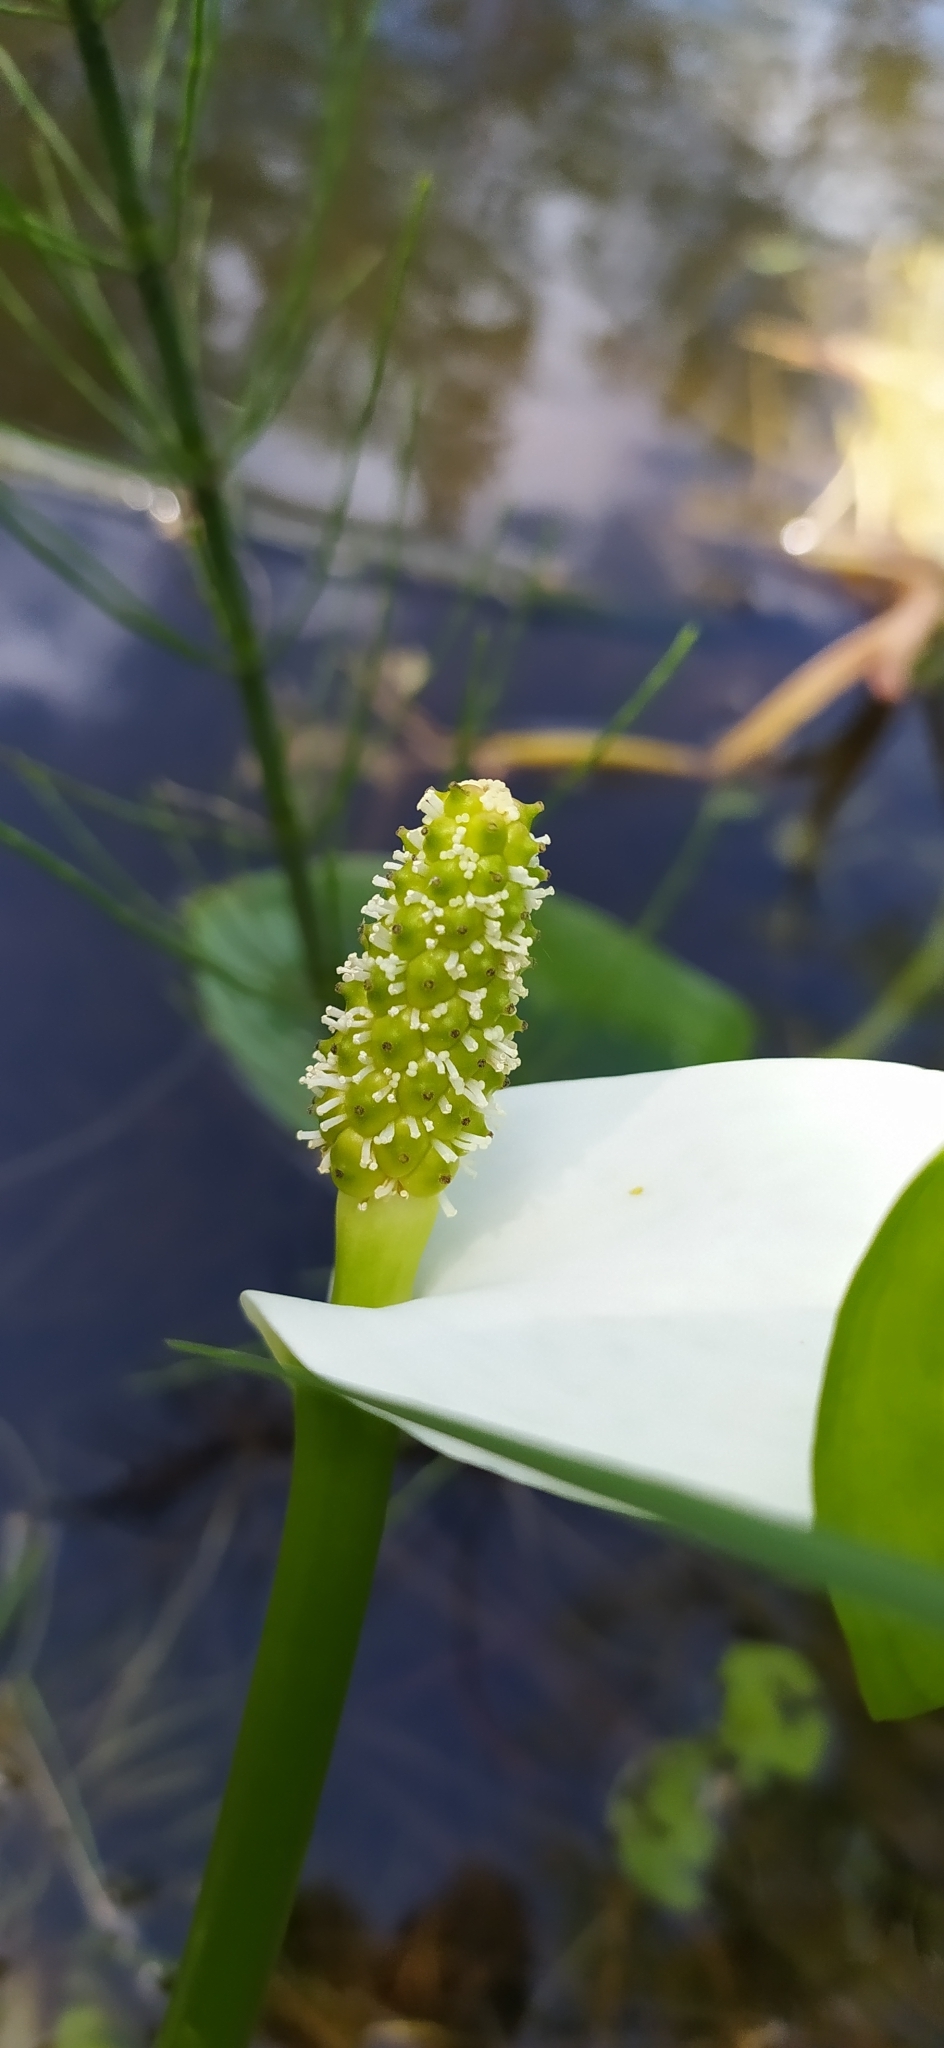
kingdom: Plantae
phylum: Tracheophyta
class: Liliopsida
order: Alismatales
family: Araceae
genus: Calla
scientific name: Calla palustris
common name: Bog arum
